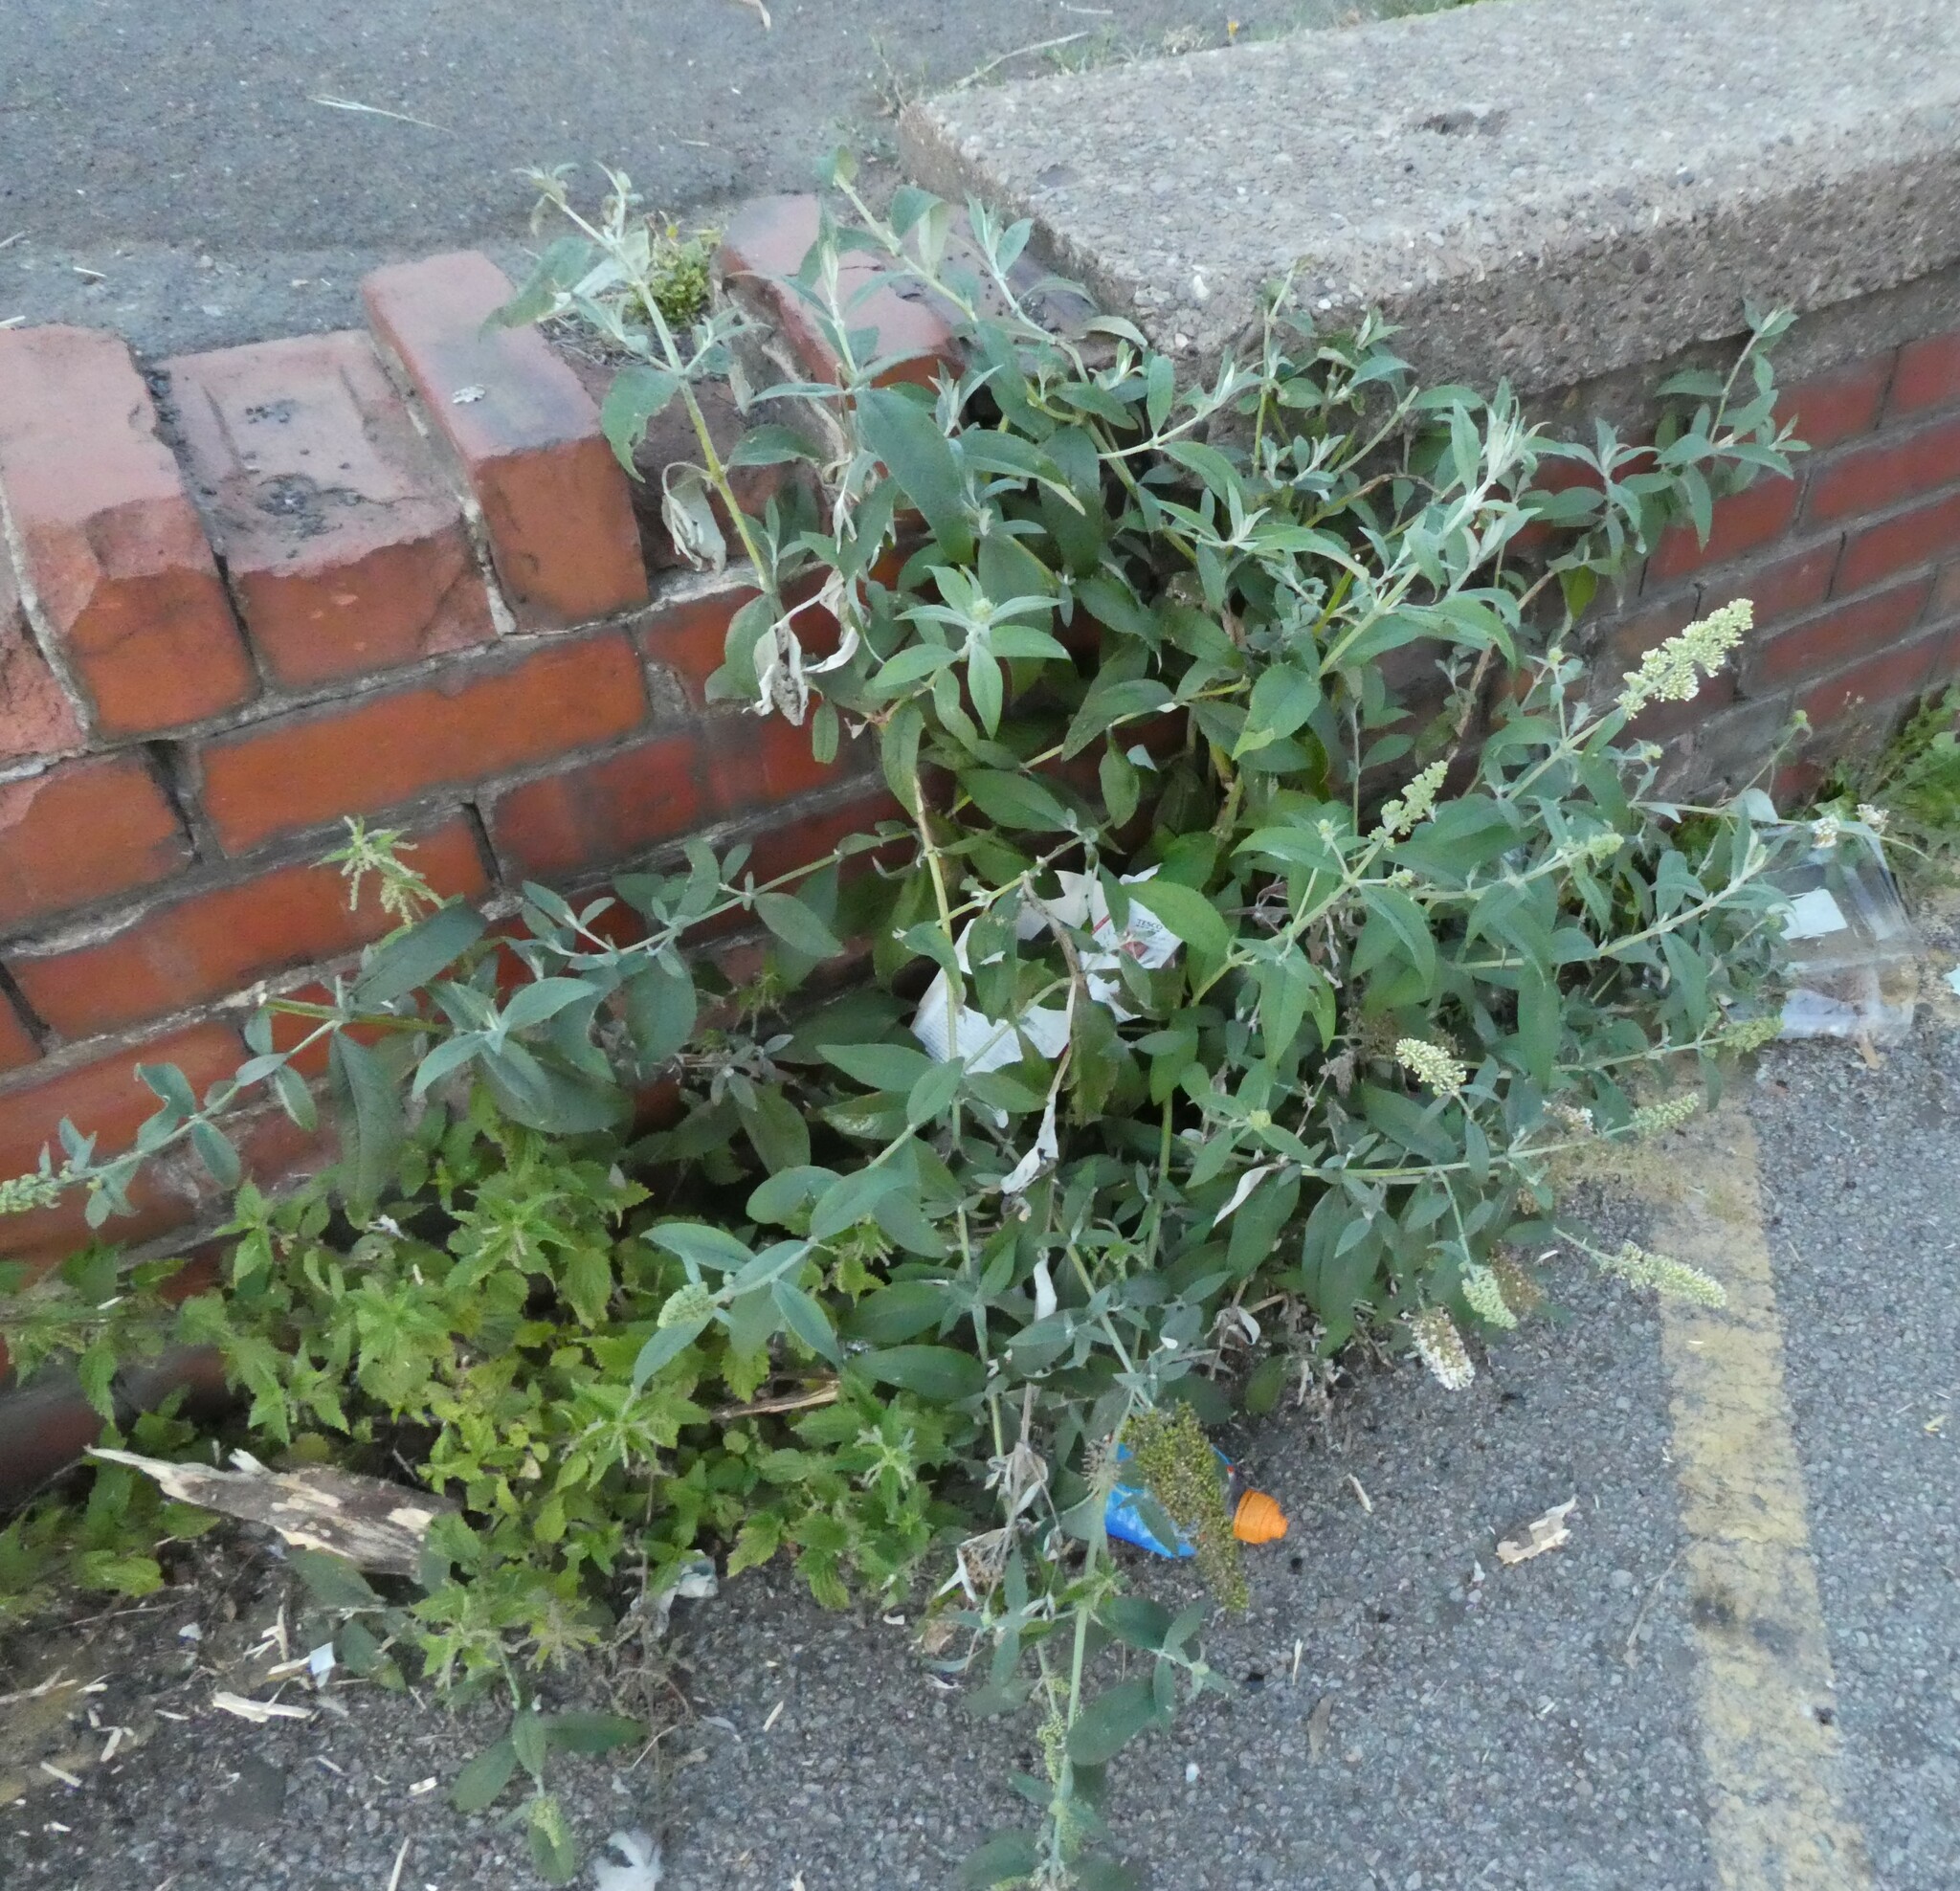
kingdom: Plantae
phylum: Tracheophyta
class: Magnoliopsida
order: Lamiales
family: Scrophulariaceae
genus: Buddleja
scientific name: Buddleja davidii
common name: Butterfly-bush
